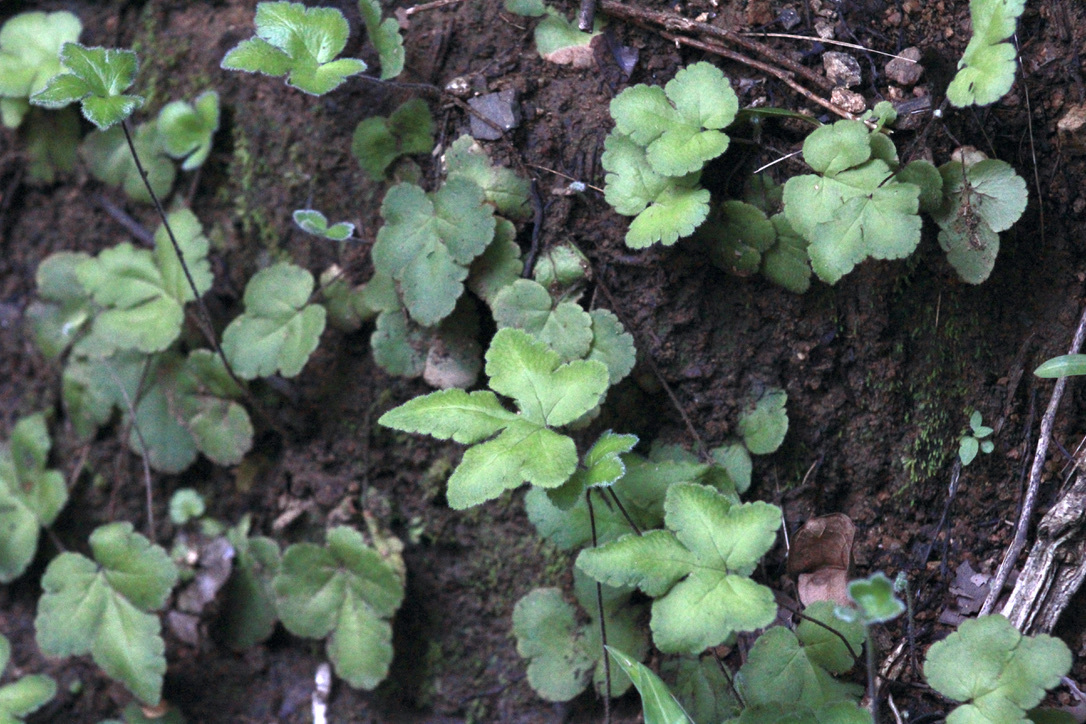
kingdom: Plantae
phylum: Tracheophyta
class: Polypodiopsida
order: Polypodiales
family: Pteridaceae
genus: Hemionitis
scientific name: Hemionitis palmata
